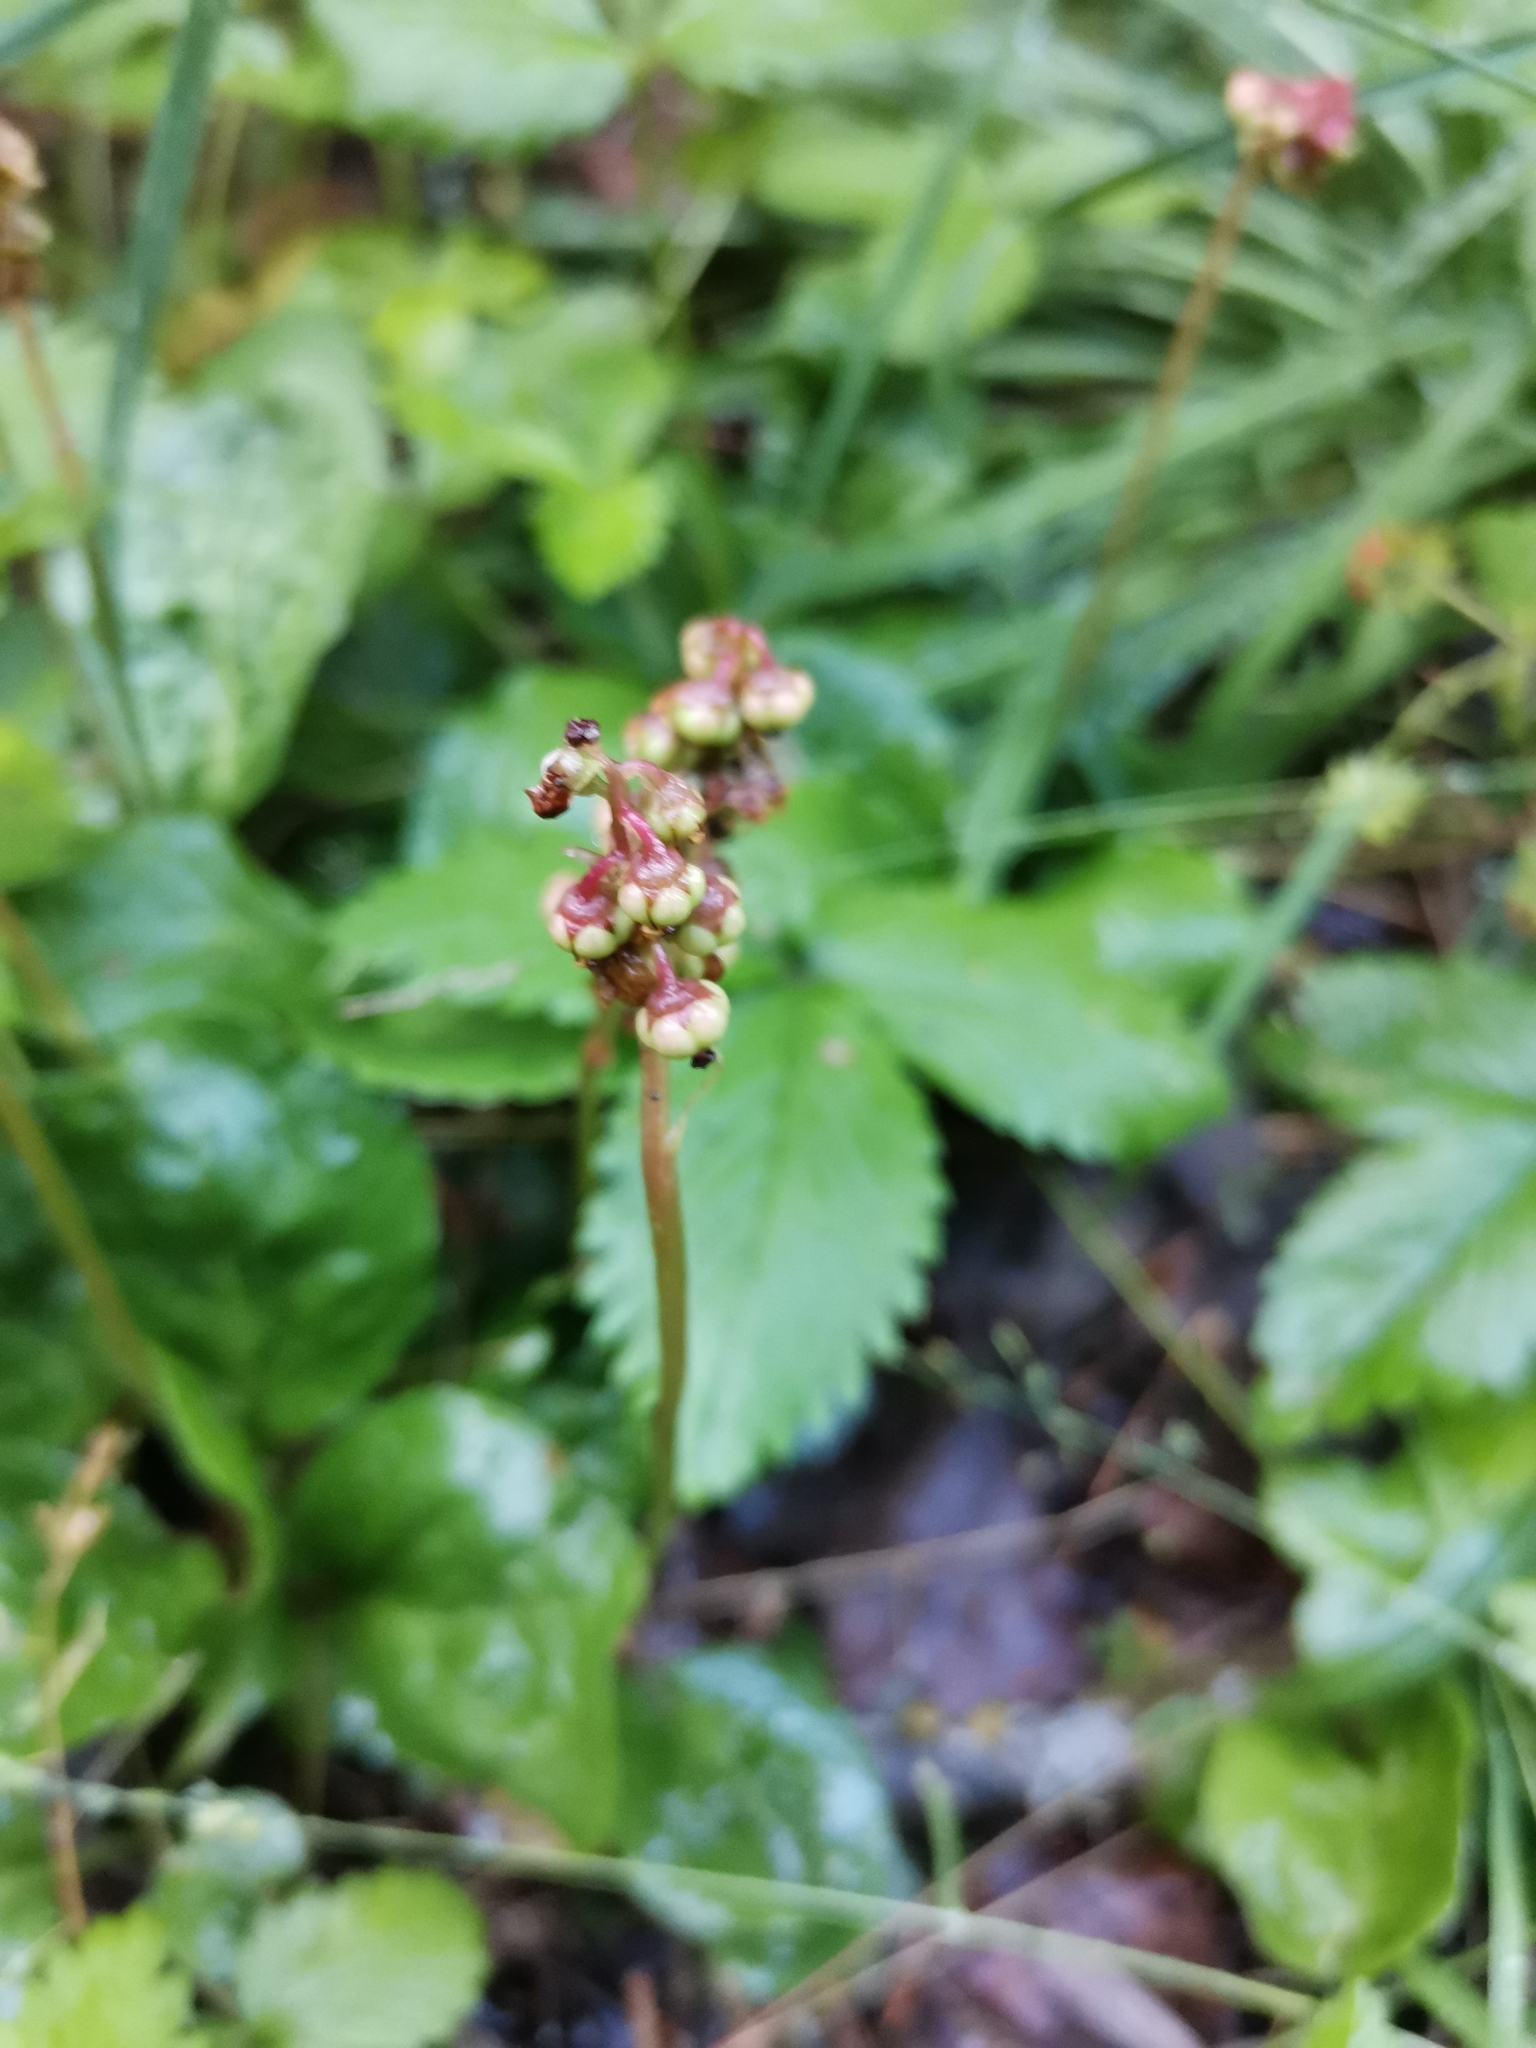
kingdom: Plantae
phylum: Tracheophyta
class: Magnoliopsida
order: Ericales
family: Ericaceae
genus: Pyrola
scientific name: Pyrola minor
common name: Common wintergreen
